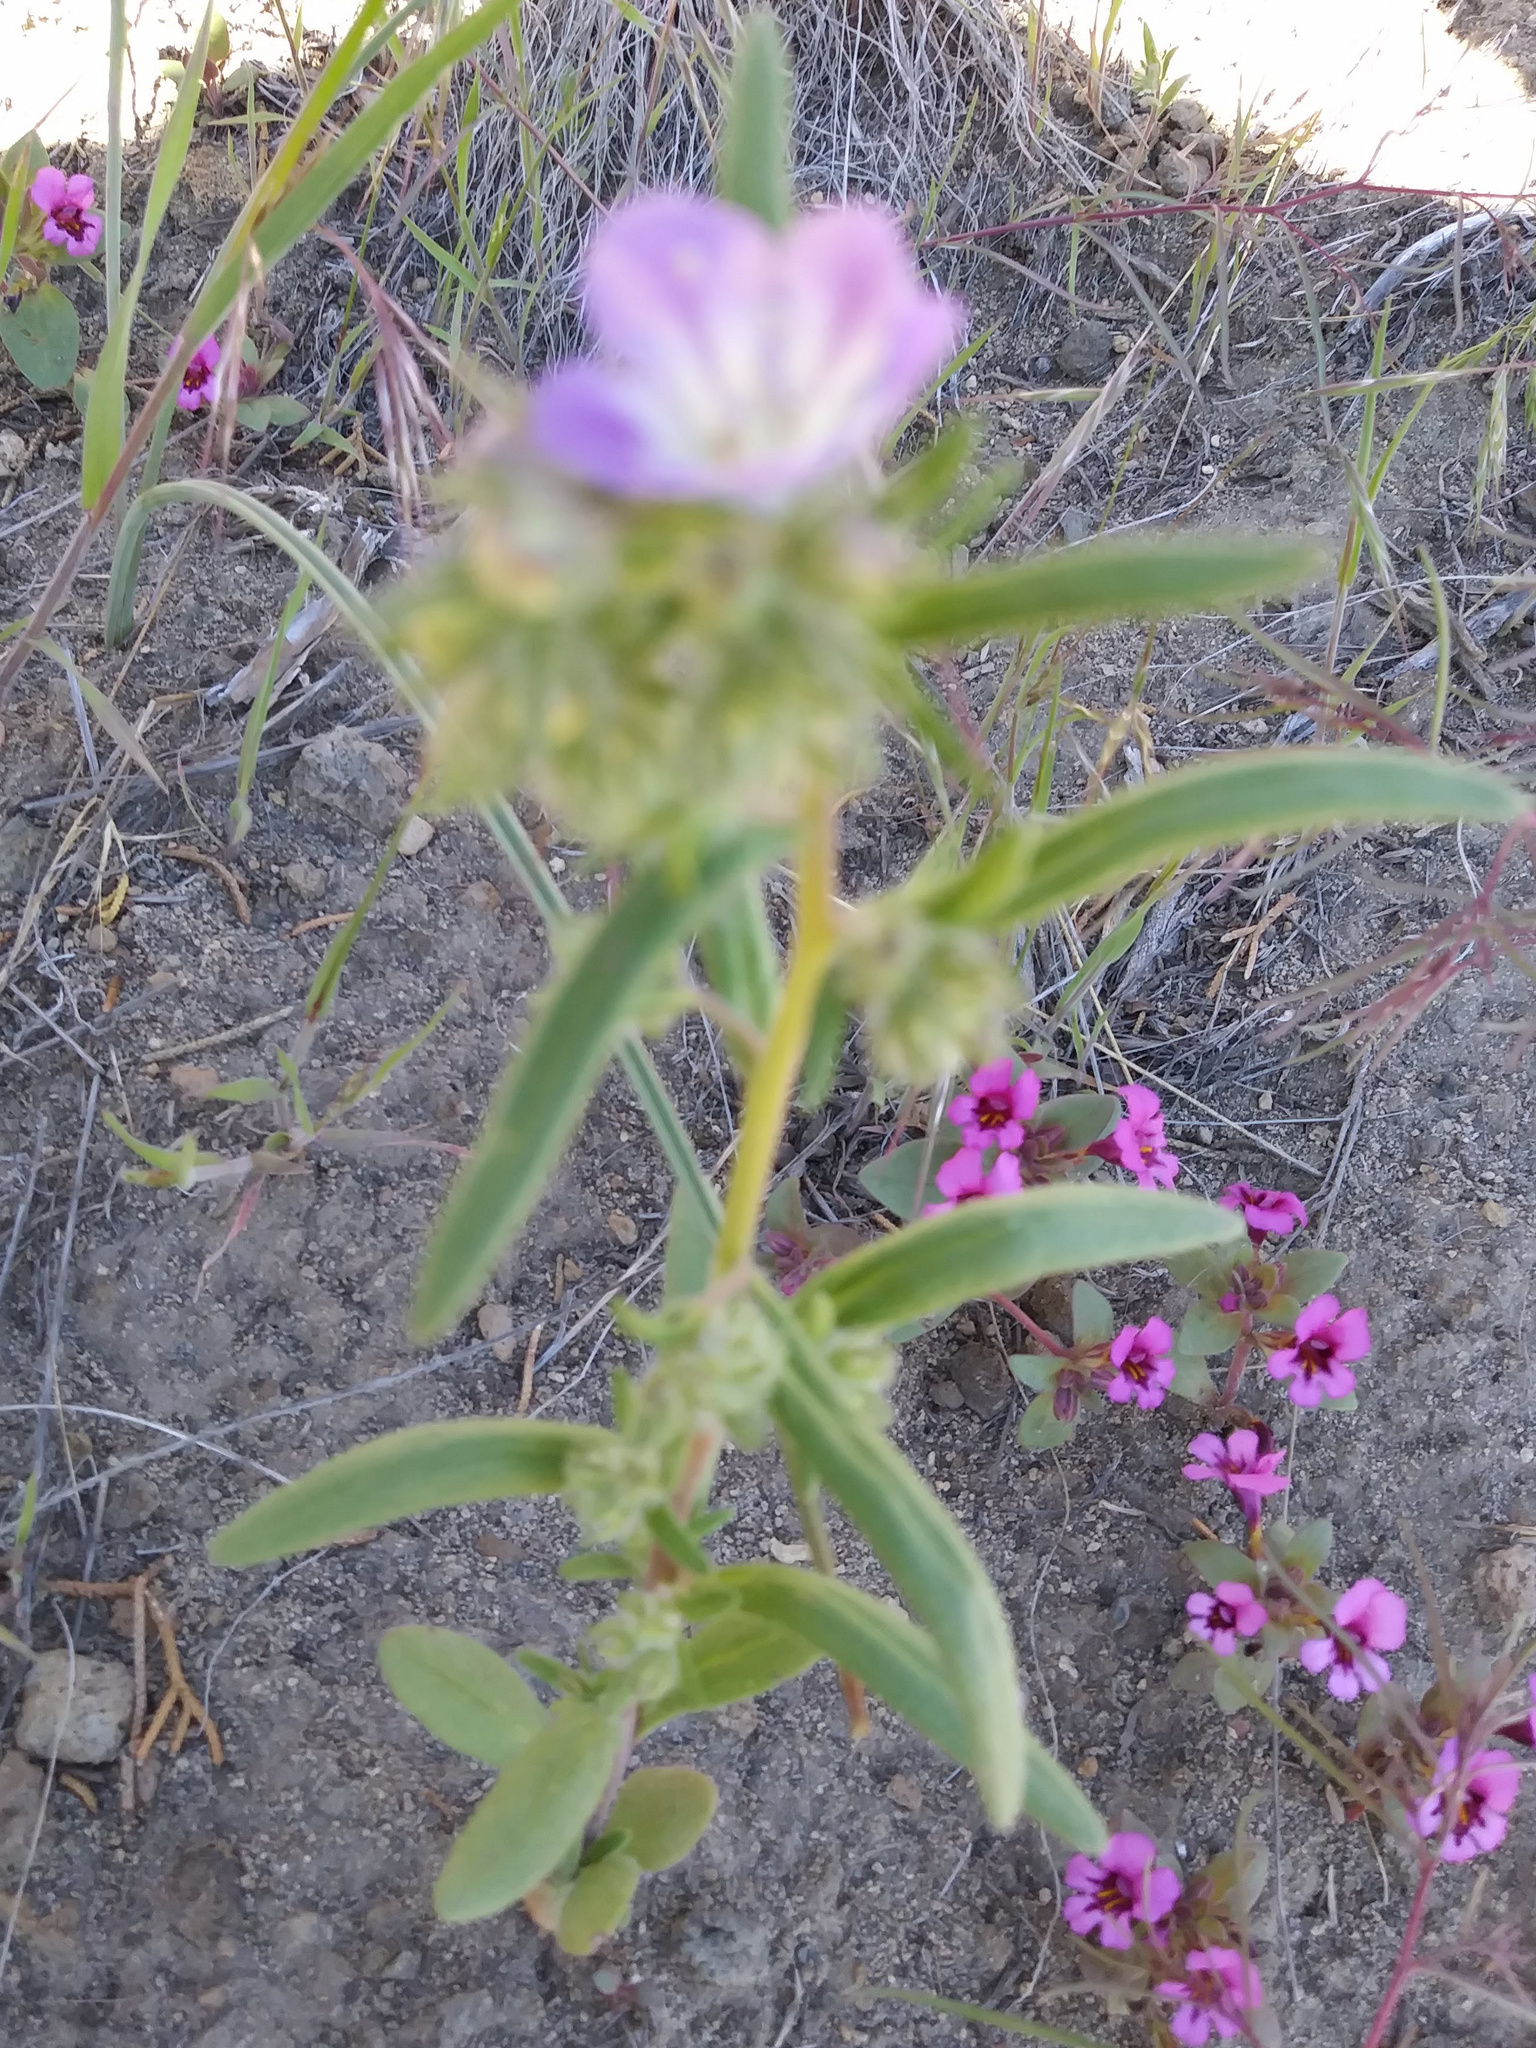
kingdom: Plantae
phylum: Tracheophyta
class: Magnoliopsida
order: Boraginales
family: Hydrophyllaceae
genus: Phacelia
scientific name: Phacelia linearis
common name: Linear-leaved phacelia
